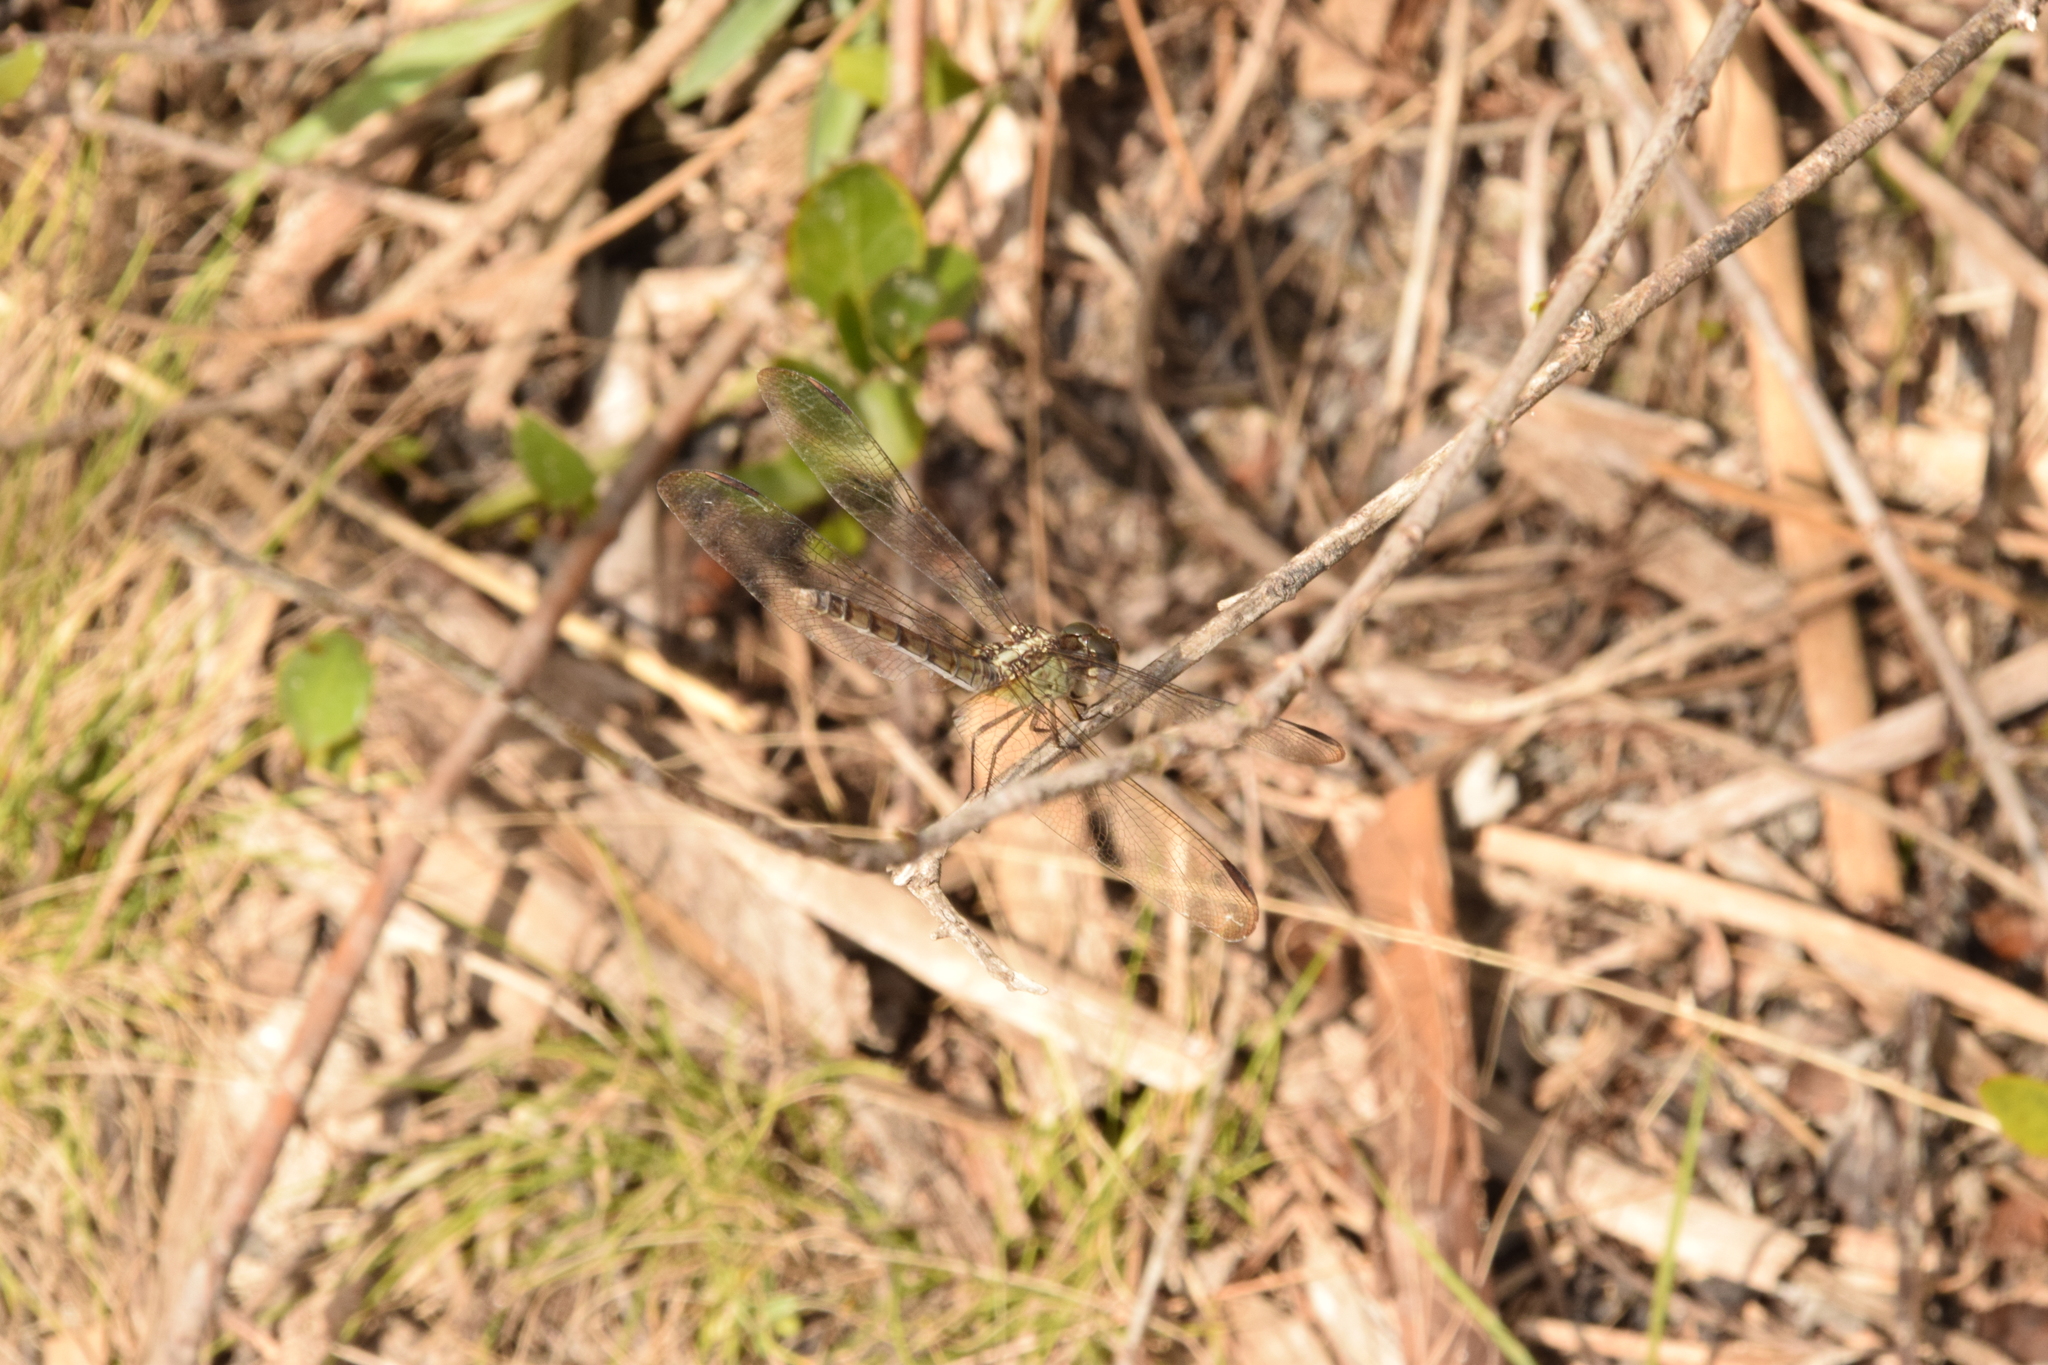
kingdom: Animalia
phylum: Arthropoda
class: Insecta
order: Odonata
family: Libellulidae
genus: Erythrodiplax
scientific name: Erythrodiplax umbrata
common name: Band-winged dragonlet
